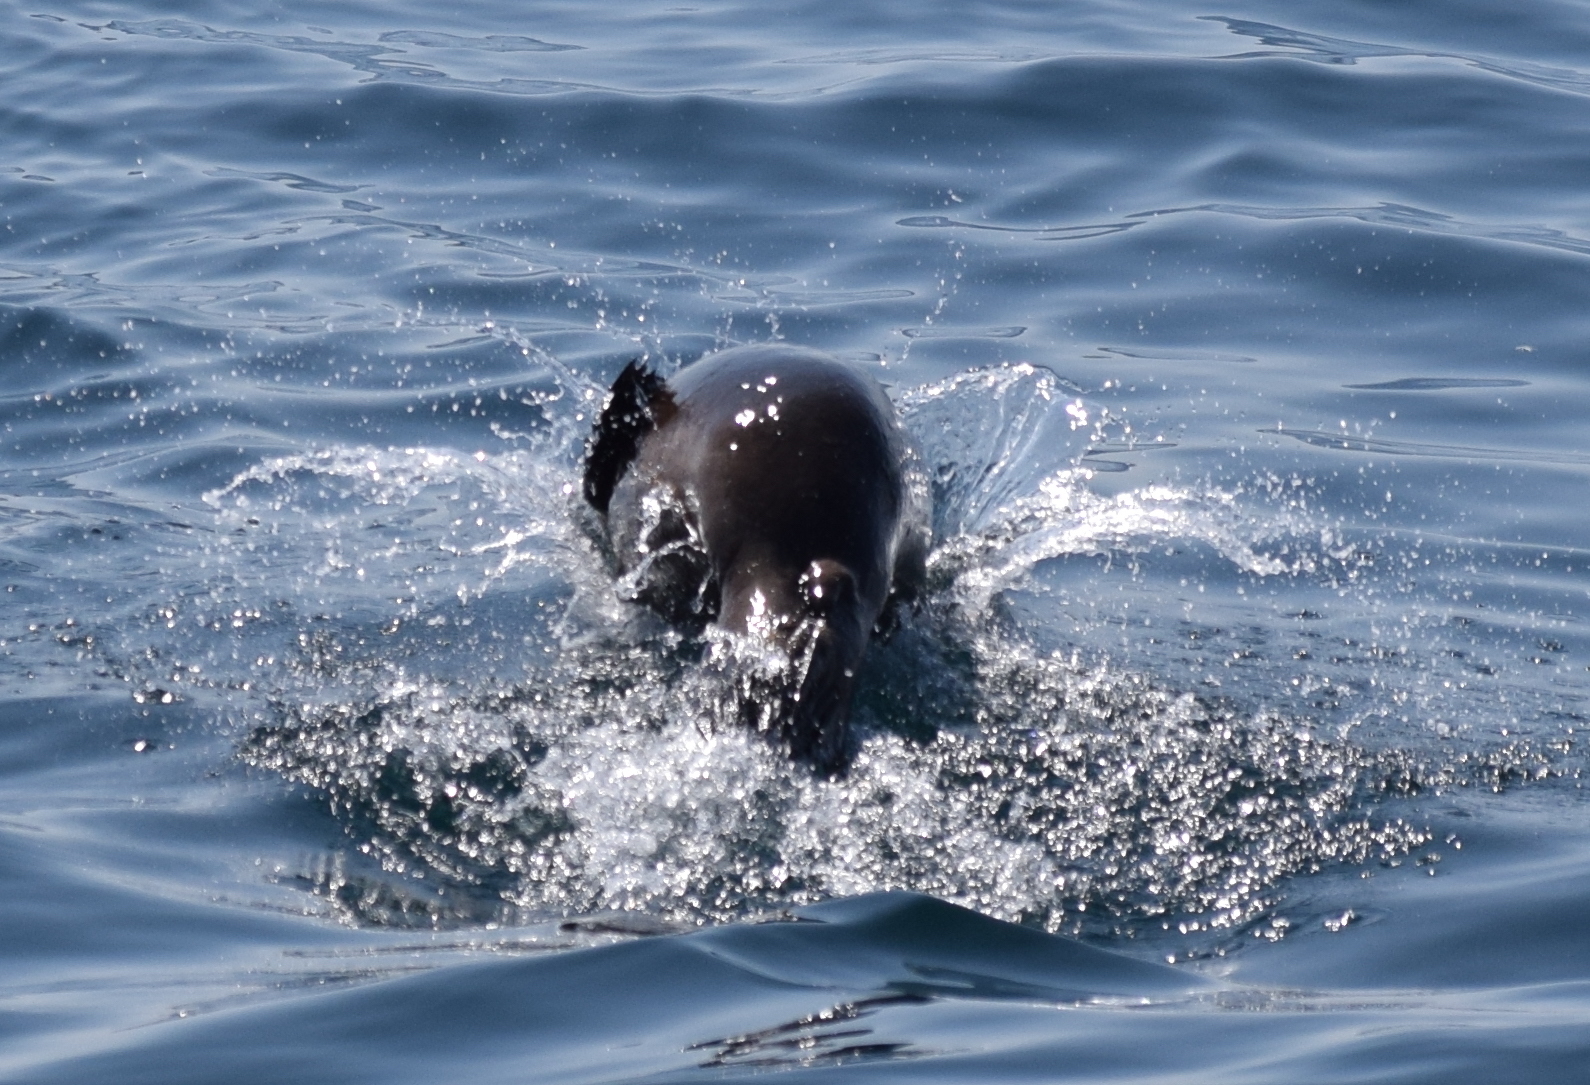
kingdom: Animalia
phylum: Chordata
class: Mammalia
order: Carnivora
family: Otariidae
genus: Zalophus
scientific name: Zalophus californianus
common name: California sea lion
